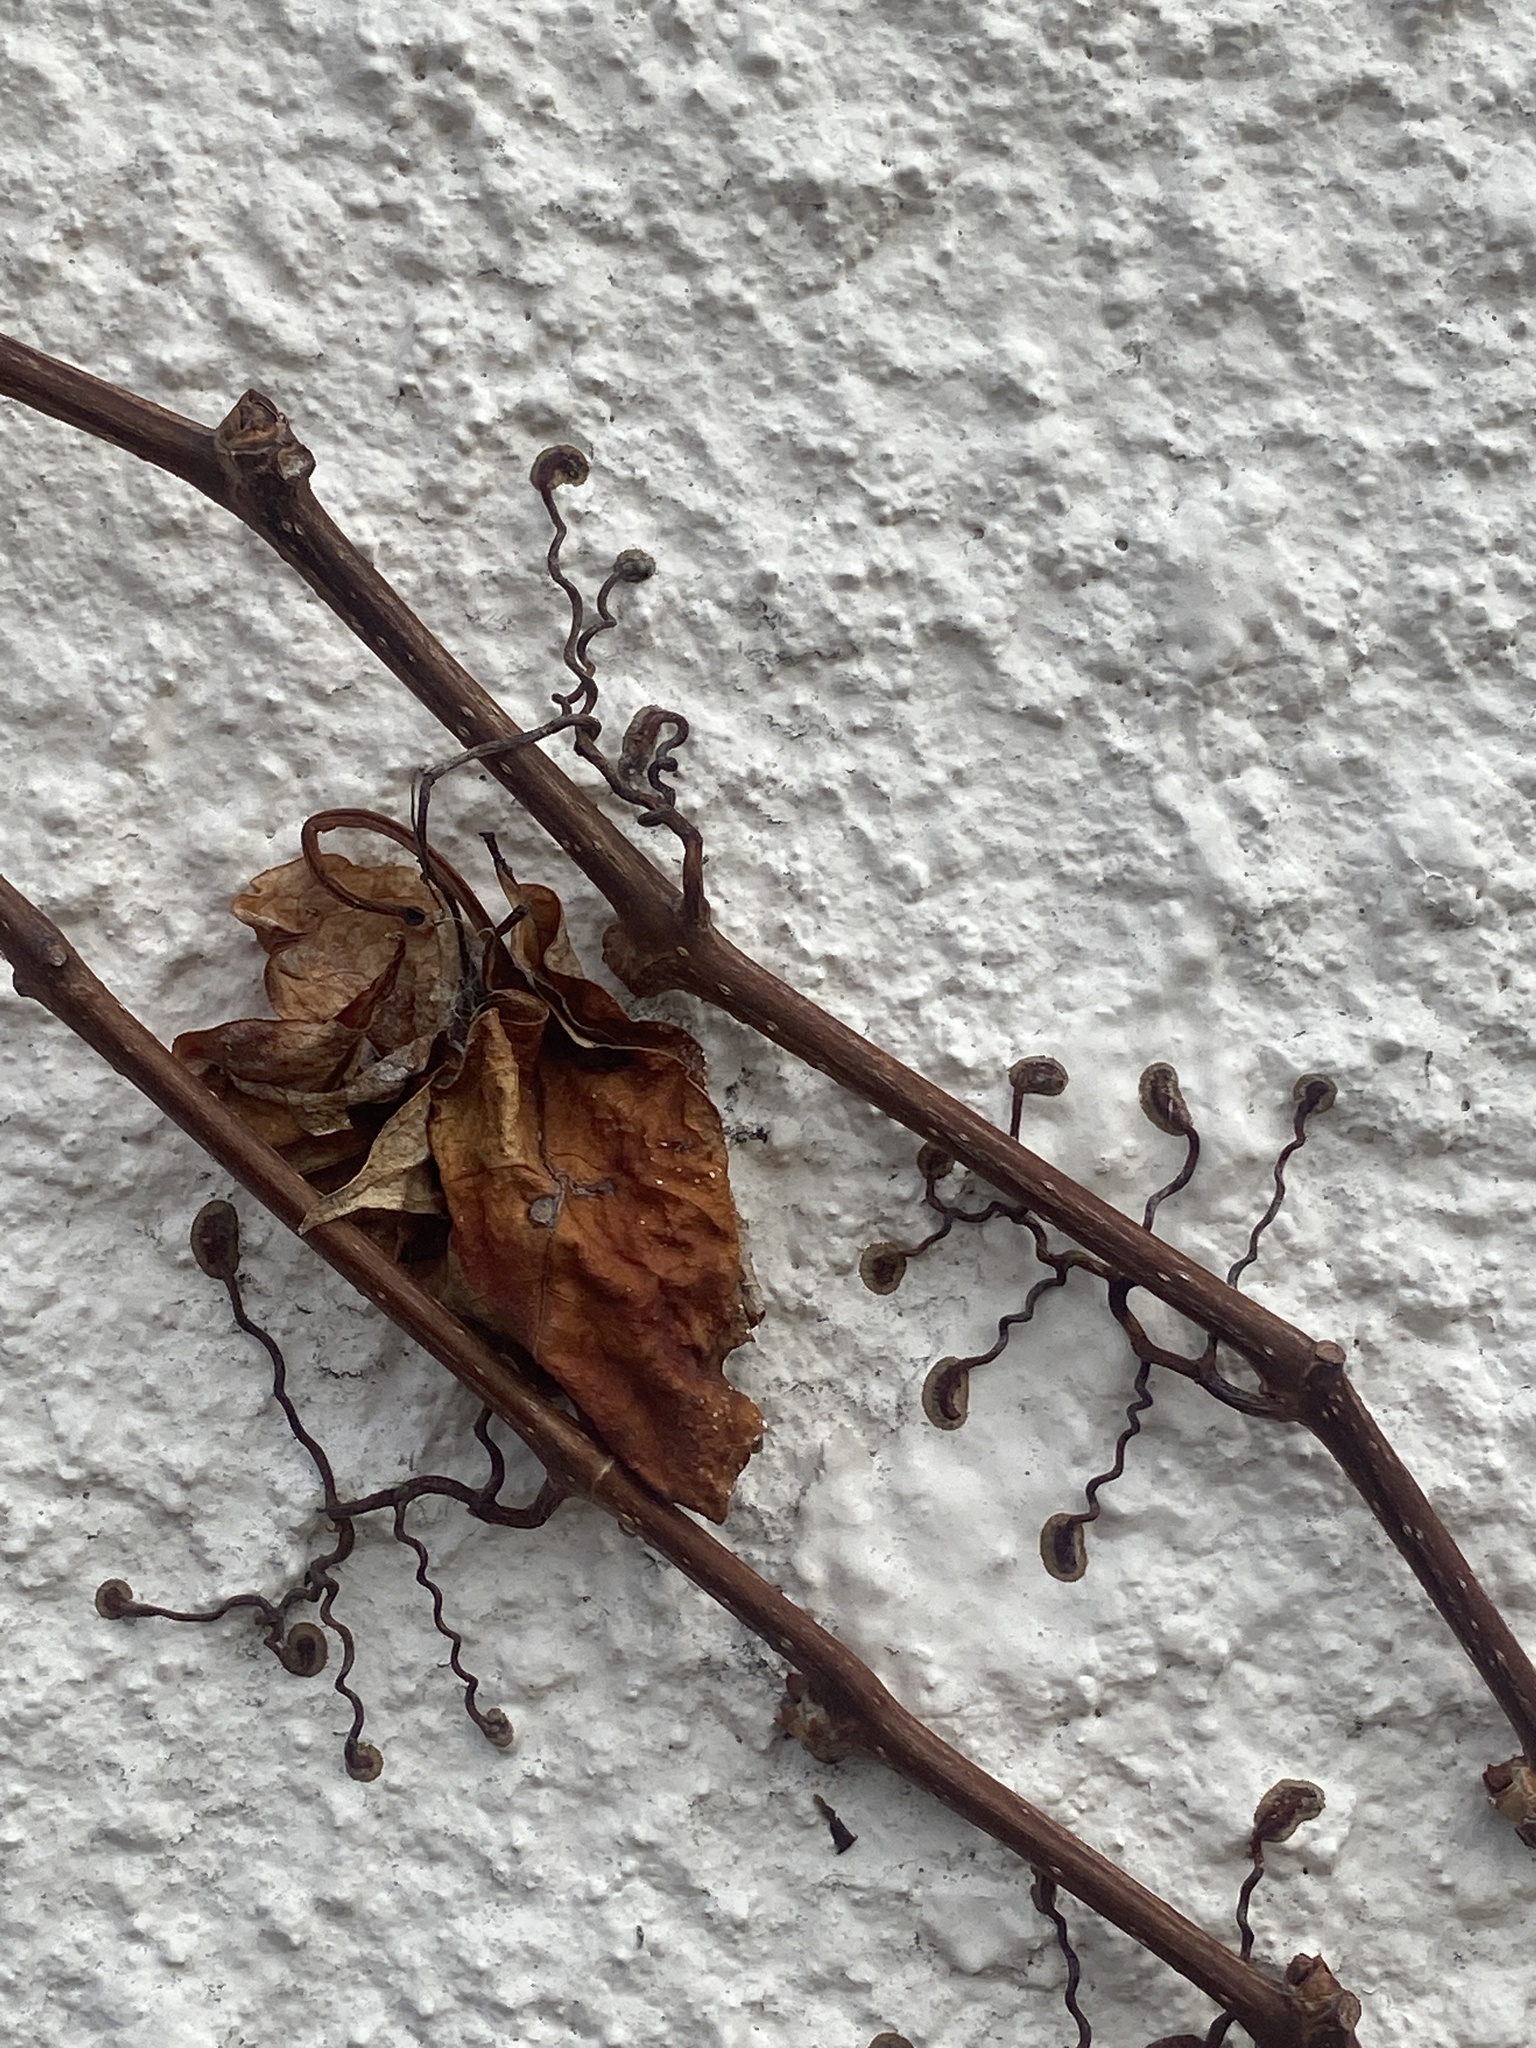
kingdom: Plantae
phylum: Tracheophyta
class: Magnoliopsida
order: Vitales
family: Vitaceae
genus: Parthenocissus
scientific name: Parthenocissus tricuspidata
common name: Boston ivy
